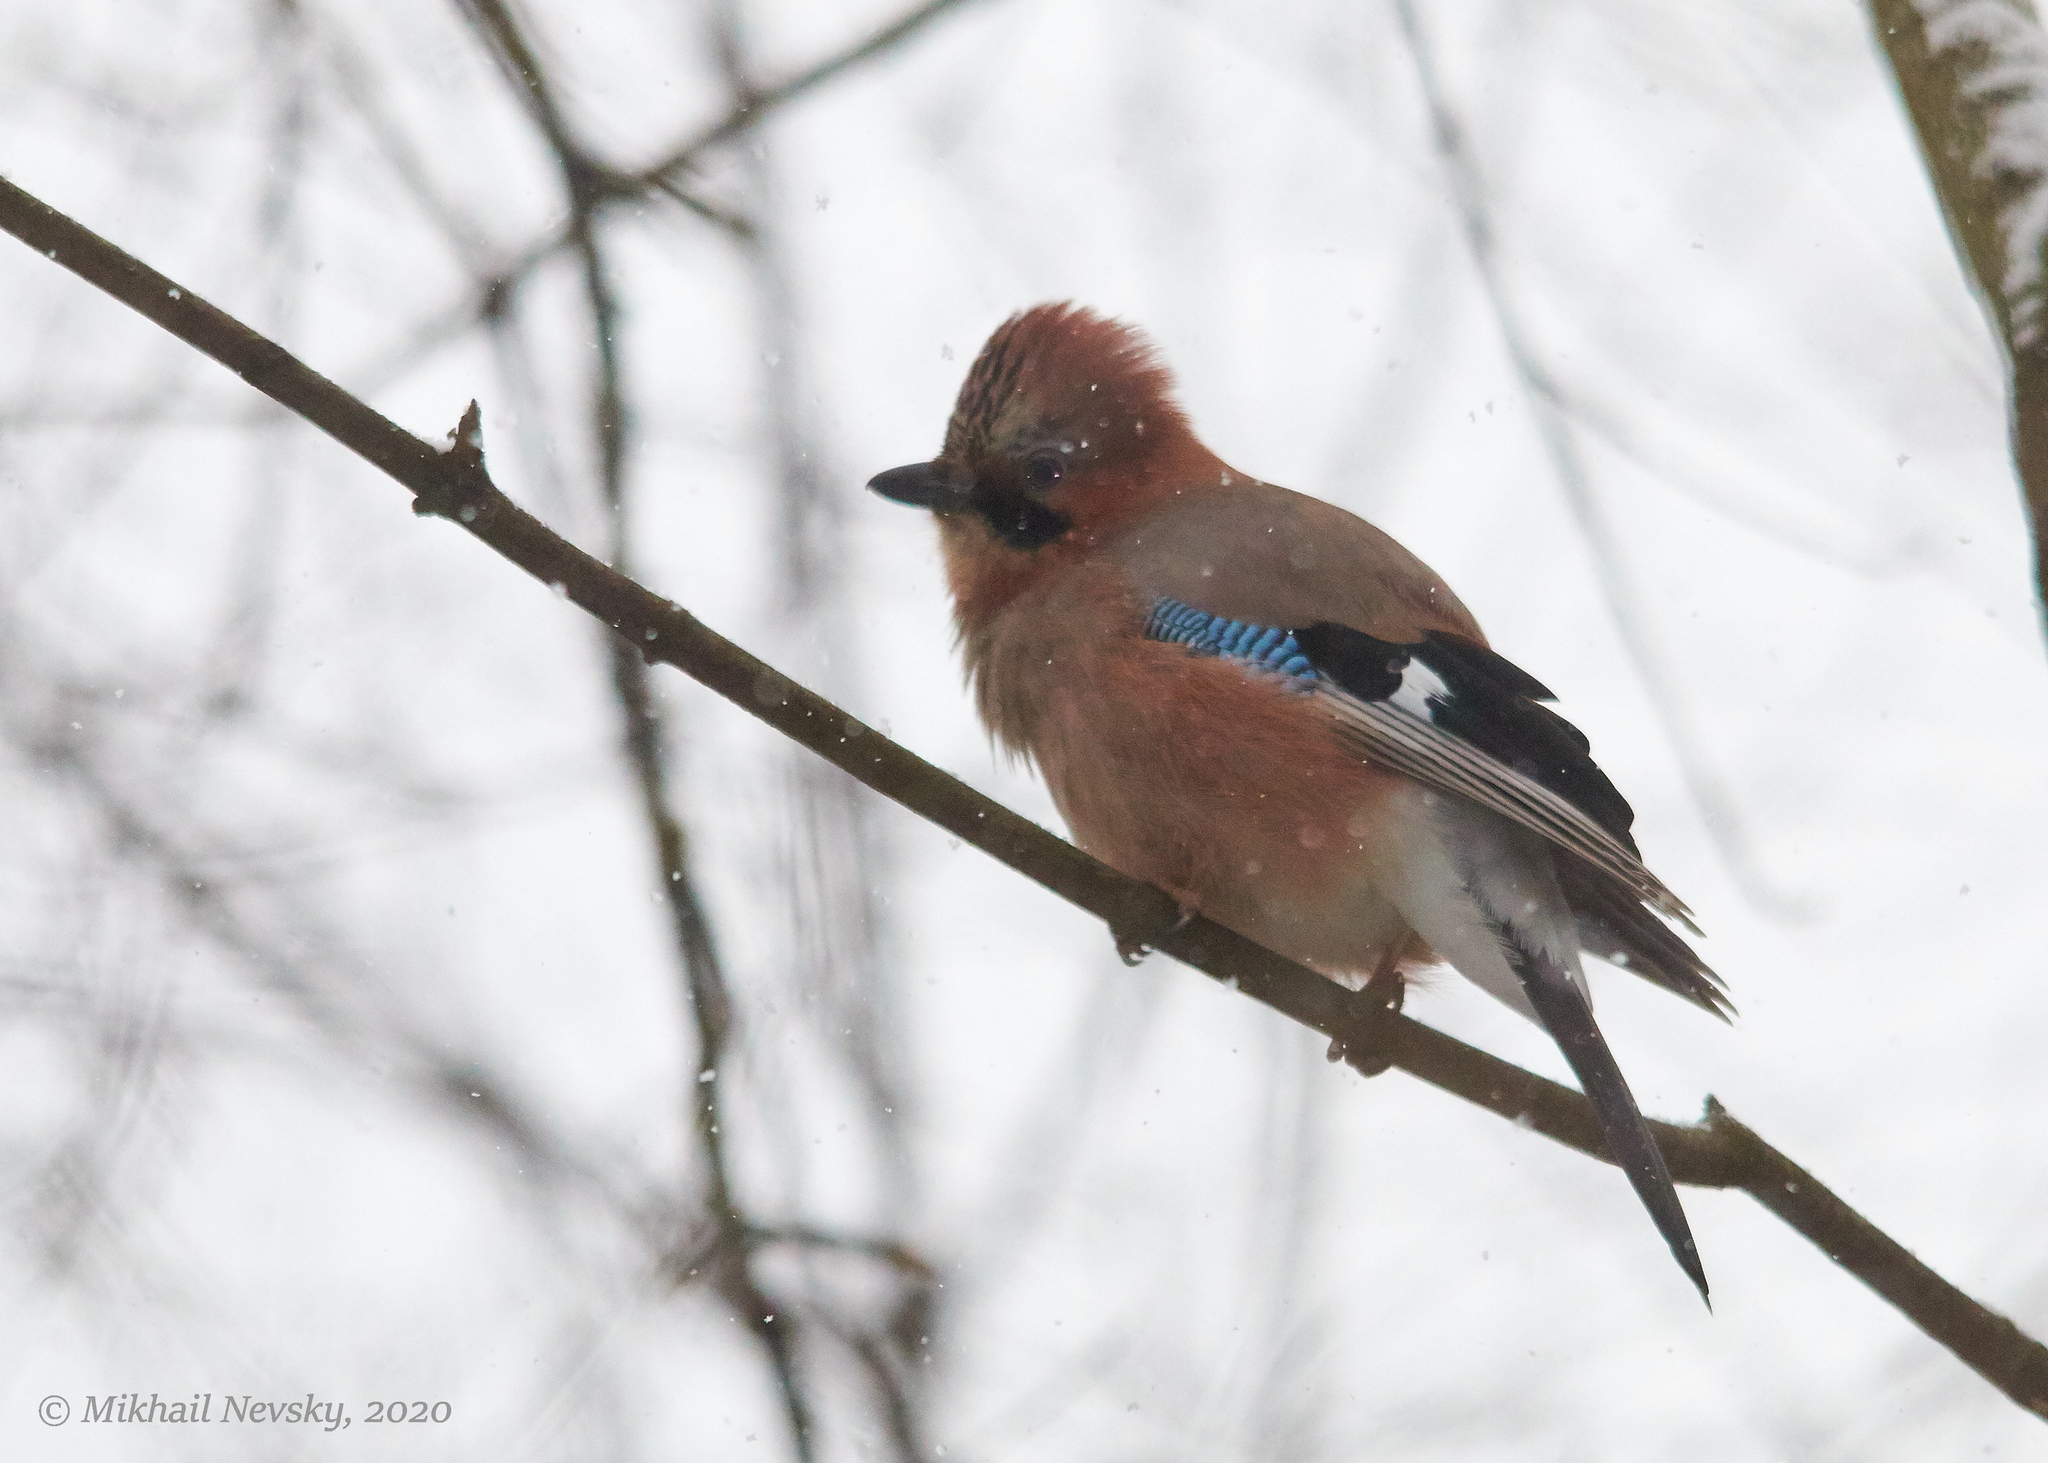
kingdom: Animalia
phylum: Chordata
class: Aves
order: Passeriformes
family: Corvidae
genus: Garrulus
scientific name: Garrulus glandarius
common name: Eurasian jay
